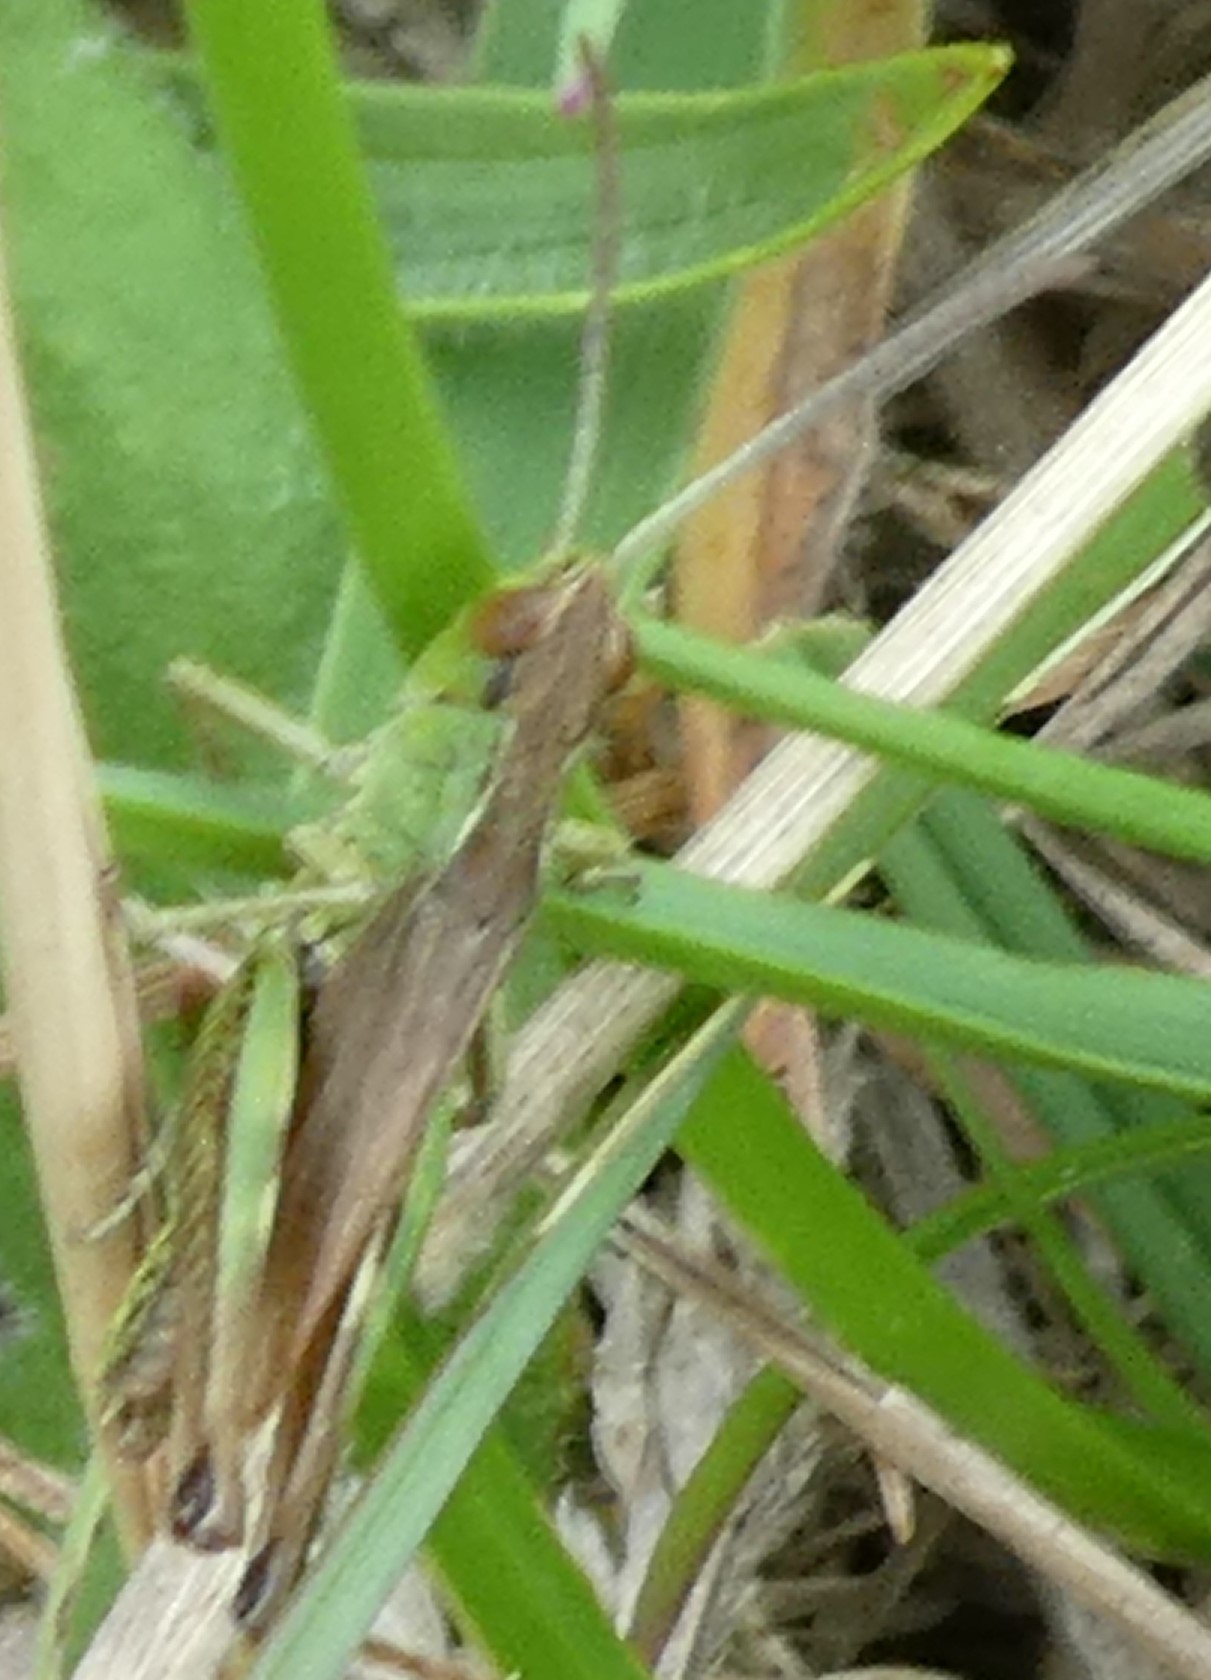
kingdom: Animalia
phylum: Arthropoda
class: Insecta
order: Orthoptera
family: Acrididae
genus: Pseudochorthippus
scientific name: Pseudochorthippus parallelus
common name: Meadow grasshopper
